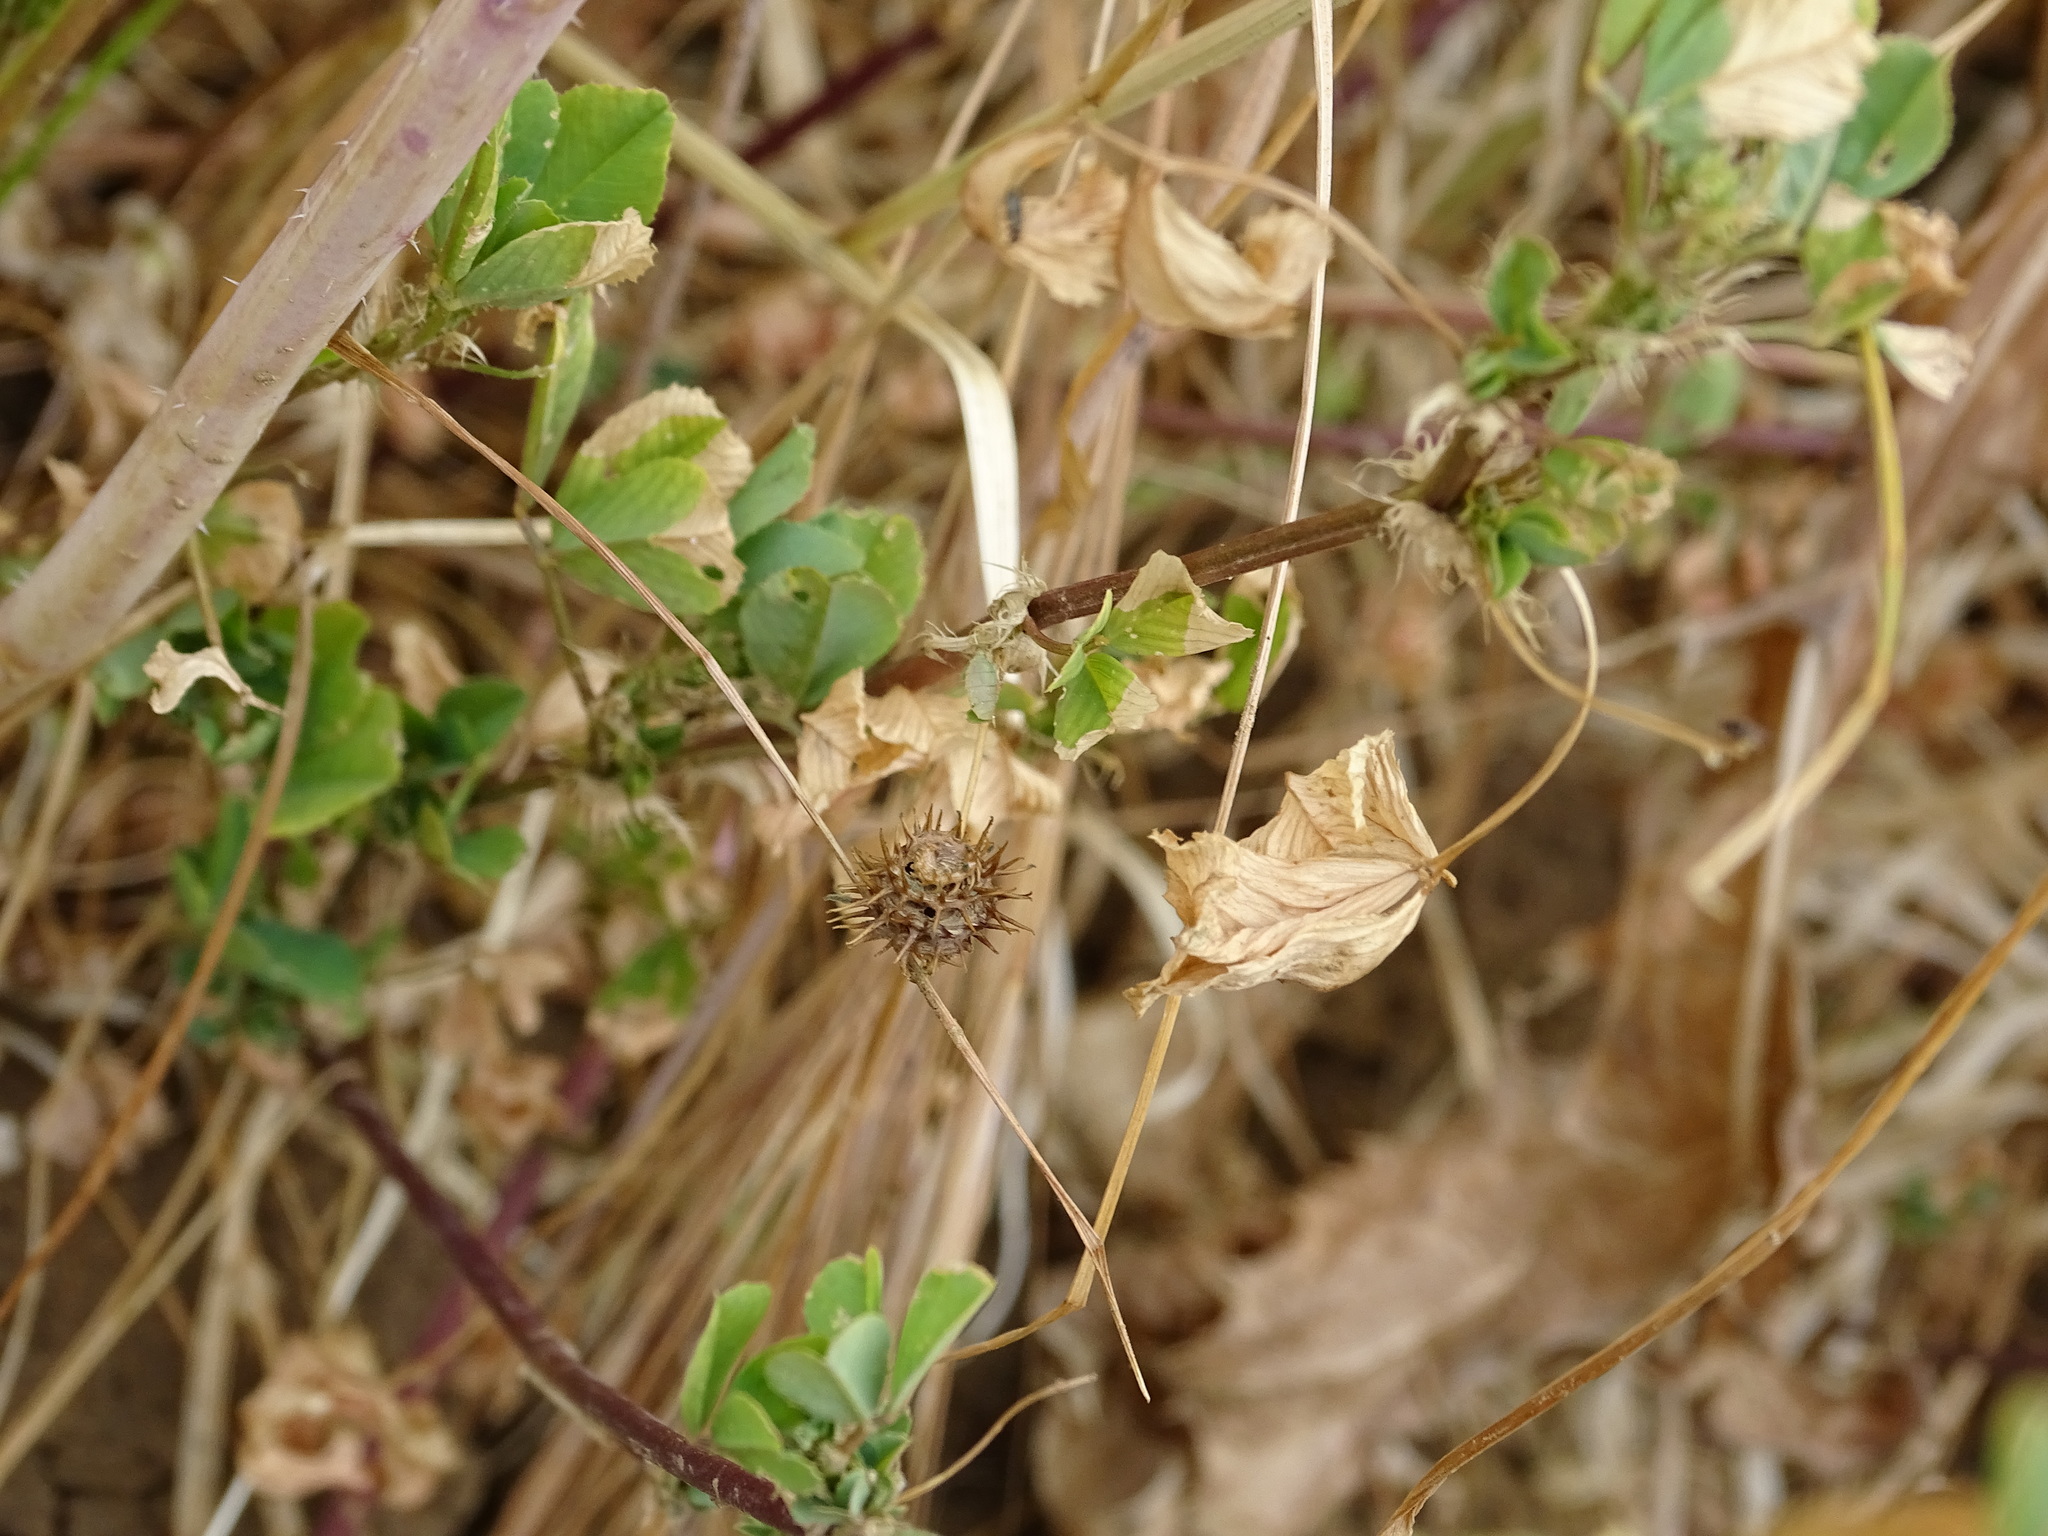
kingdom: Plantae
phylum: Tracheophyta
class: Magnoliopsida
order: Fabales
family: Fabaceae
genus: Medicago
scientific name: Medicago polymorpha
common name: Burclover
